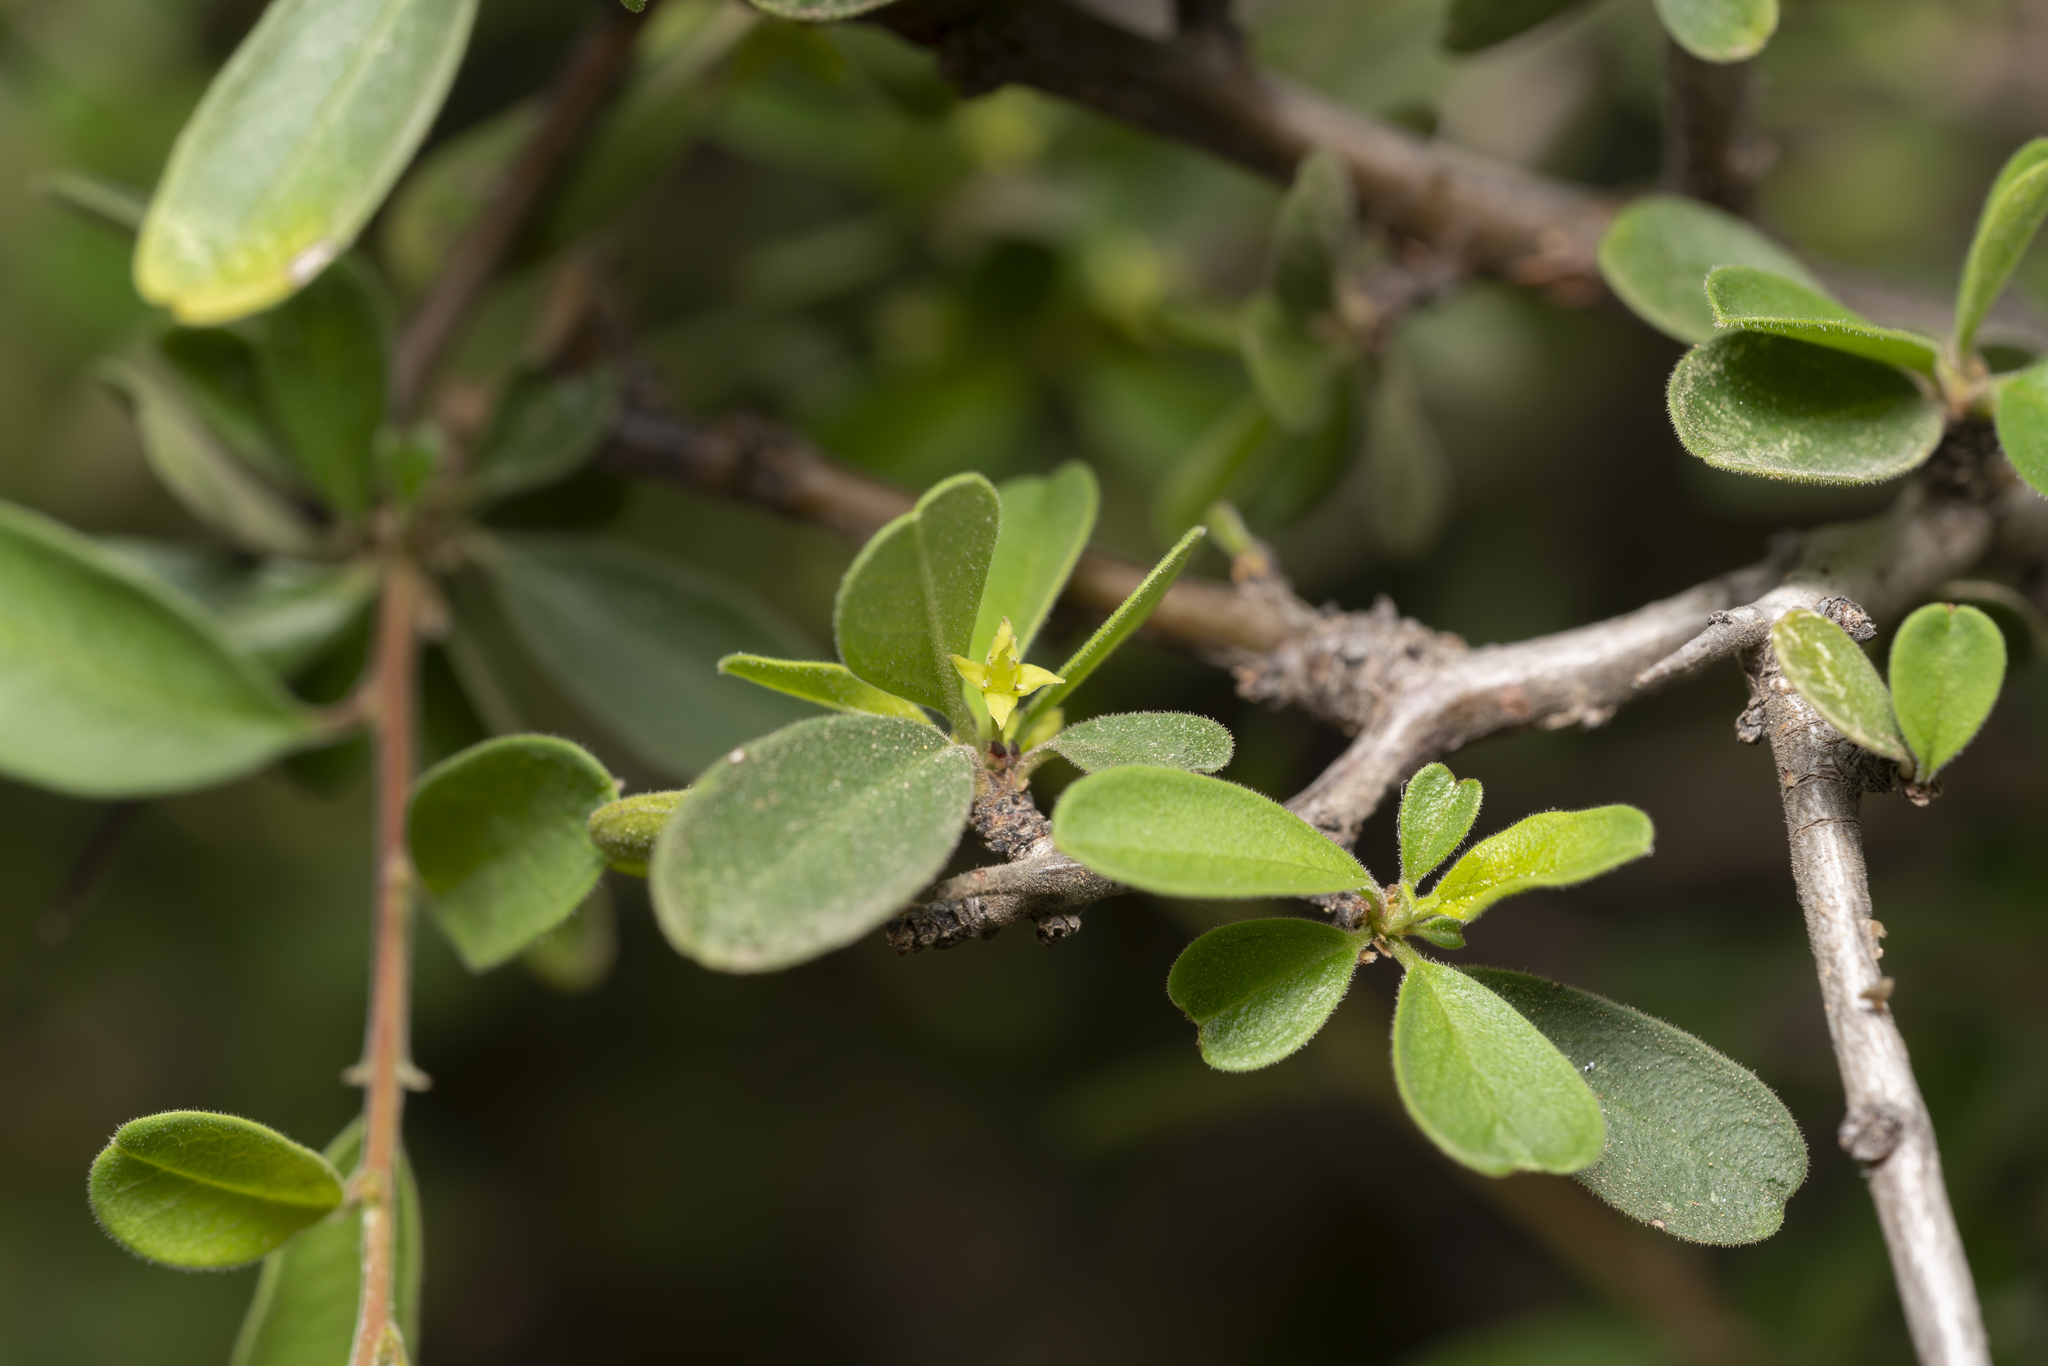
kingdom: Plantae
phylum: Tracheophyta
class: Magnoliopsida
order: Rosales
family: Rhamnaceae
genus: Rhamnus
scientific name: Rhamnus pichleri
